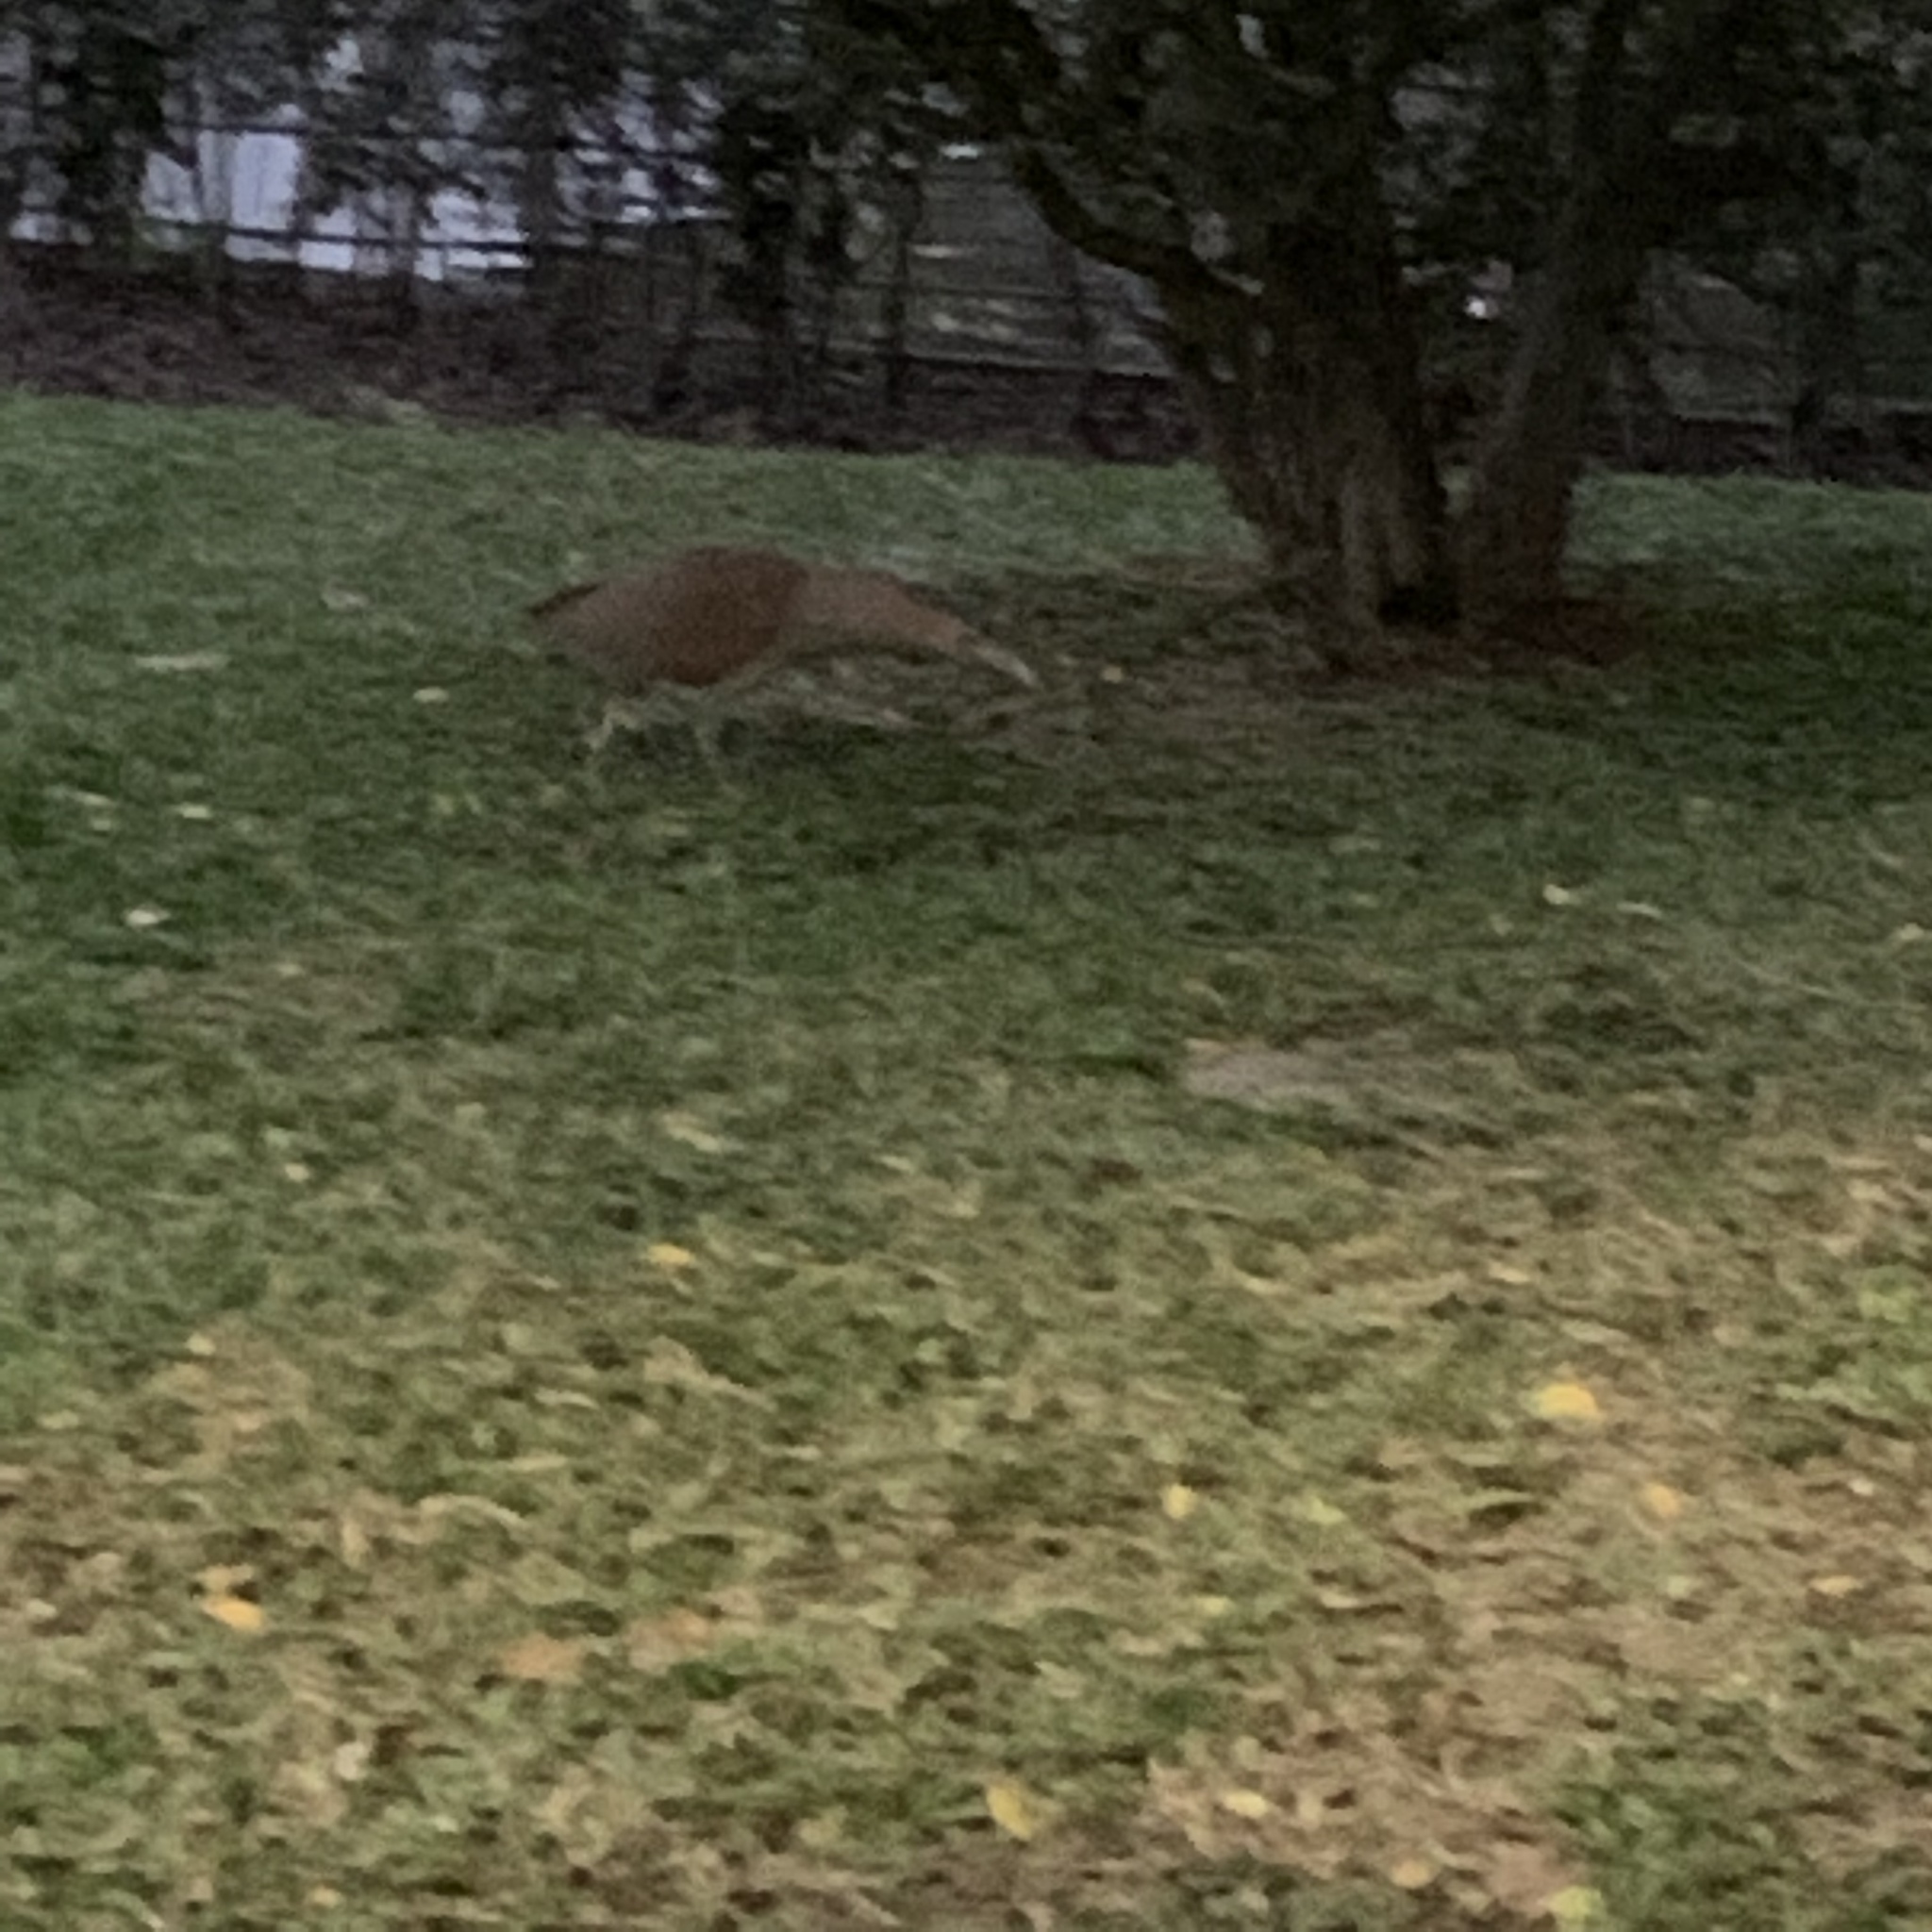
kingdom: Animalia
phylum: Chordata
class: Aves
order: Pelecaniformes
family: Ardeidae
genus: Gorsachius
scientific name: Gorsachius melanolophus
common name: Malayan night heron
